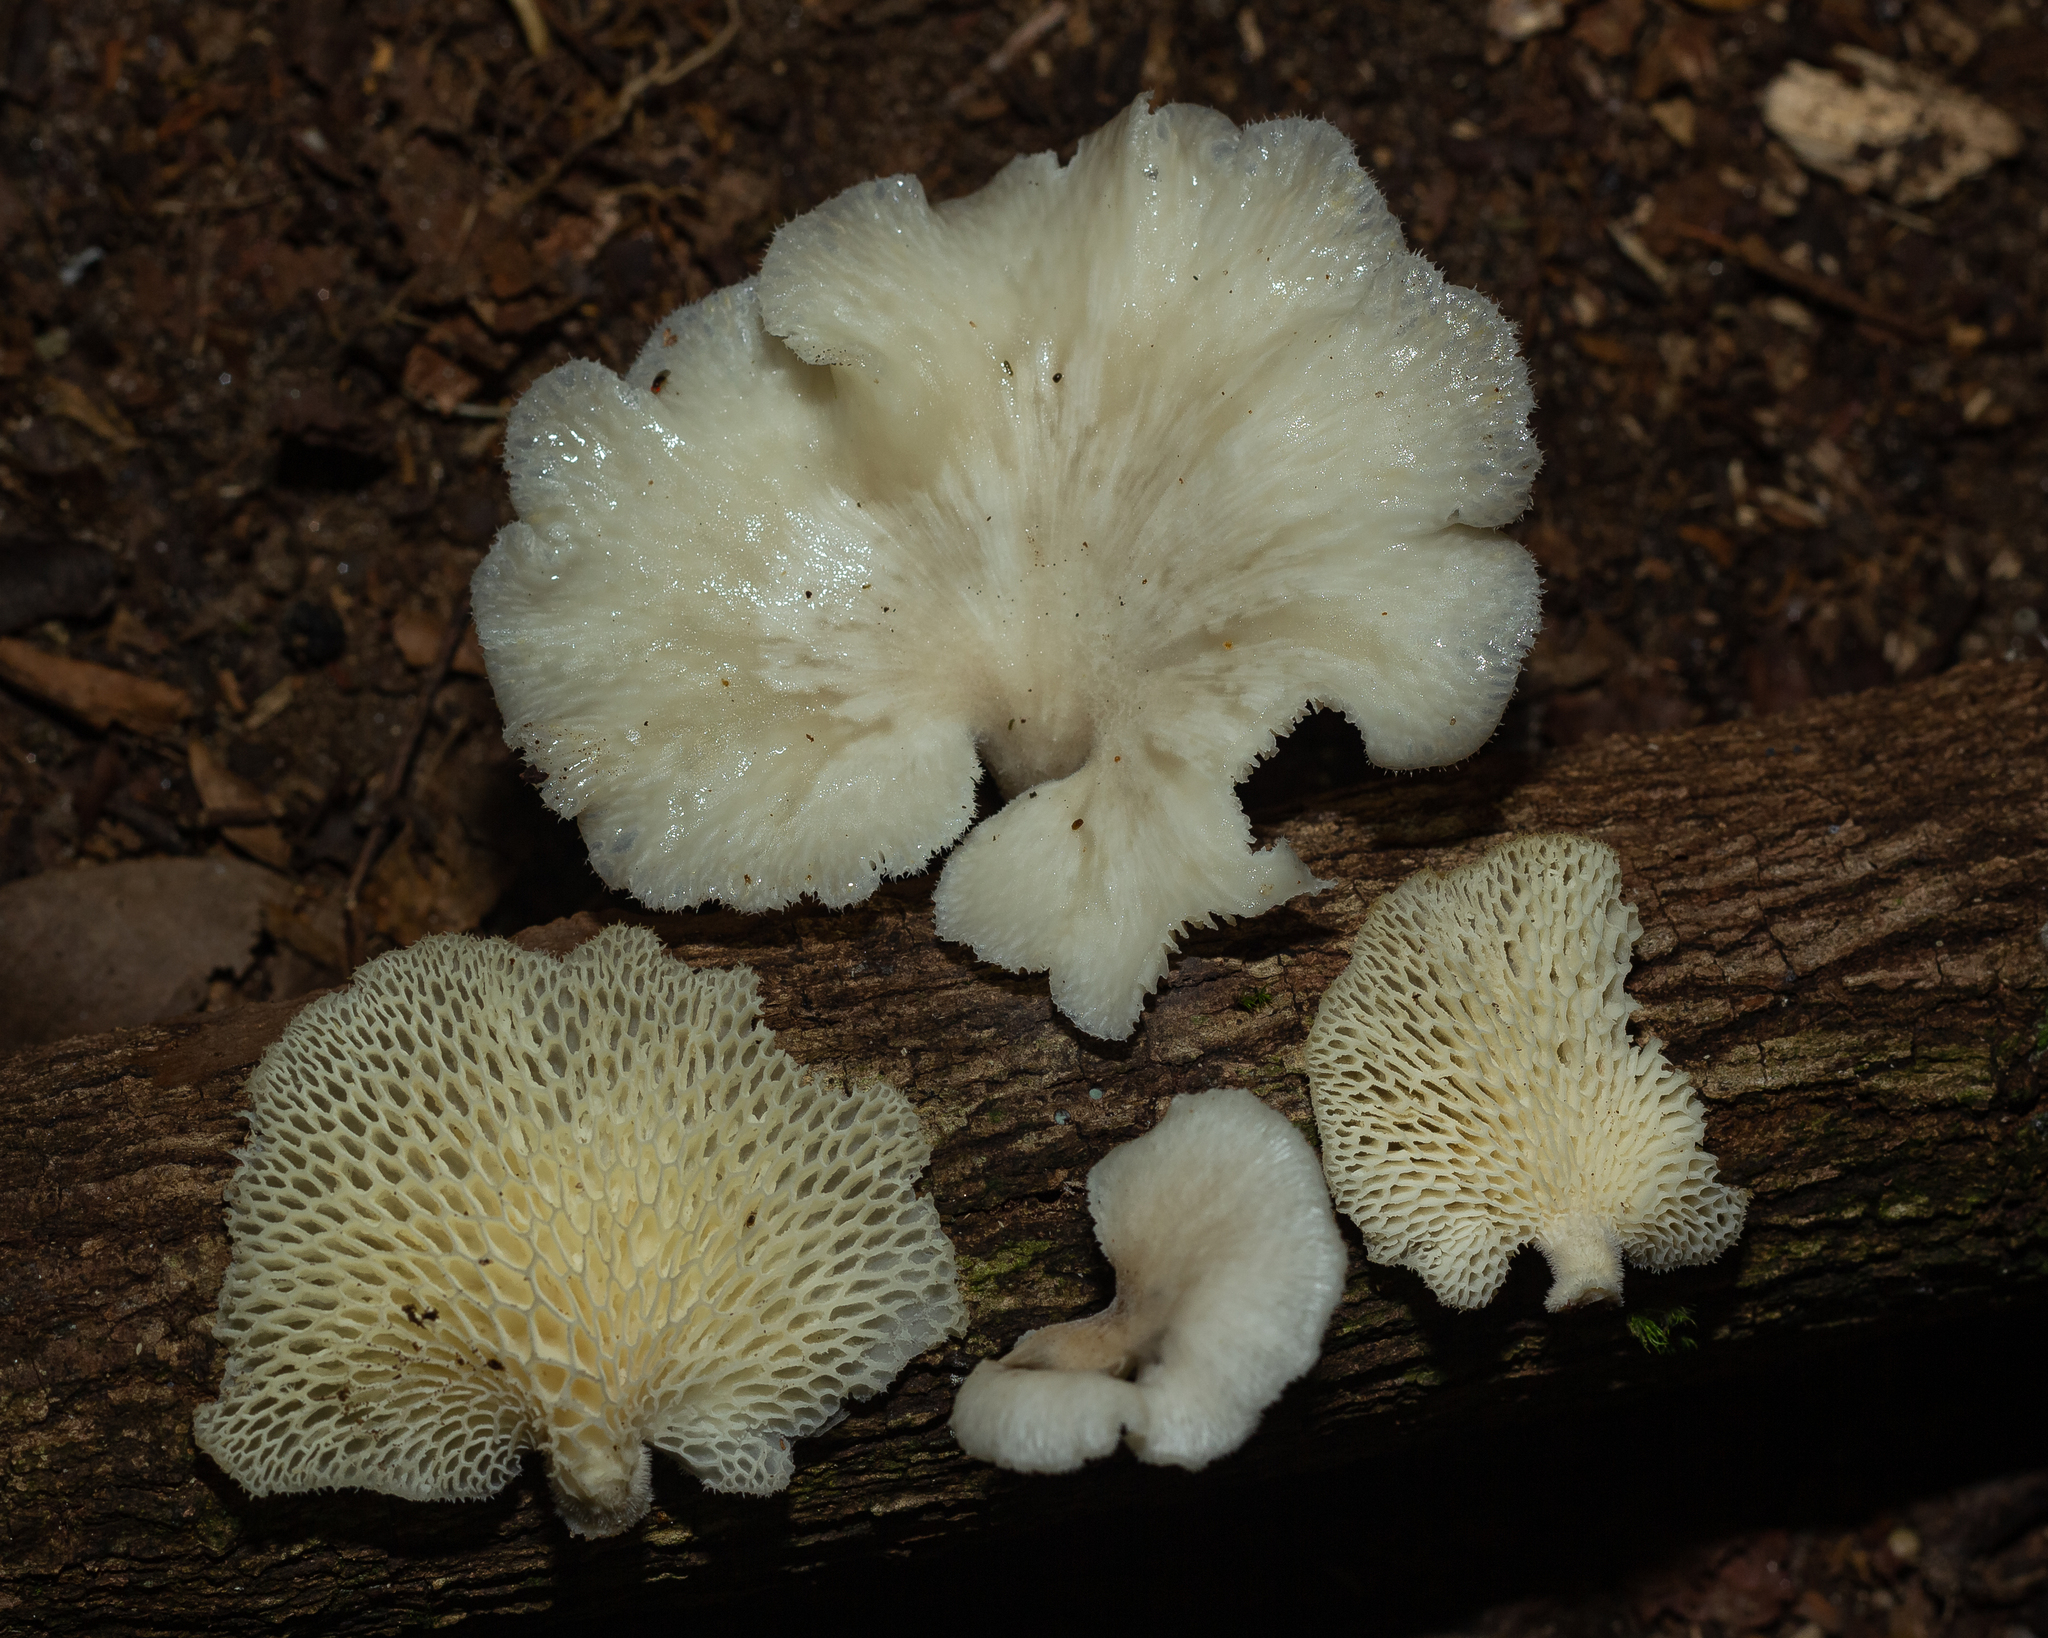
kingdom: Fungi
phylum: Basidiomycota
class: Agaricomycetes
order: Polyporales
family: Polyporaceae
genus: Favolus
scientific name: Favolus rugulosus
